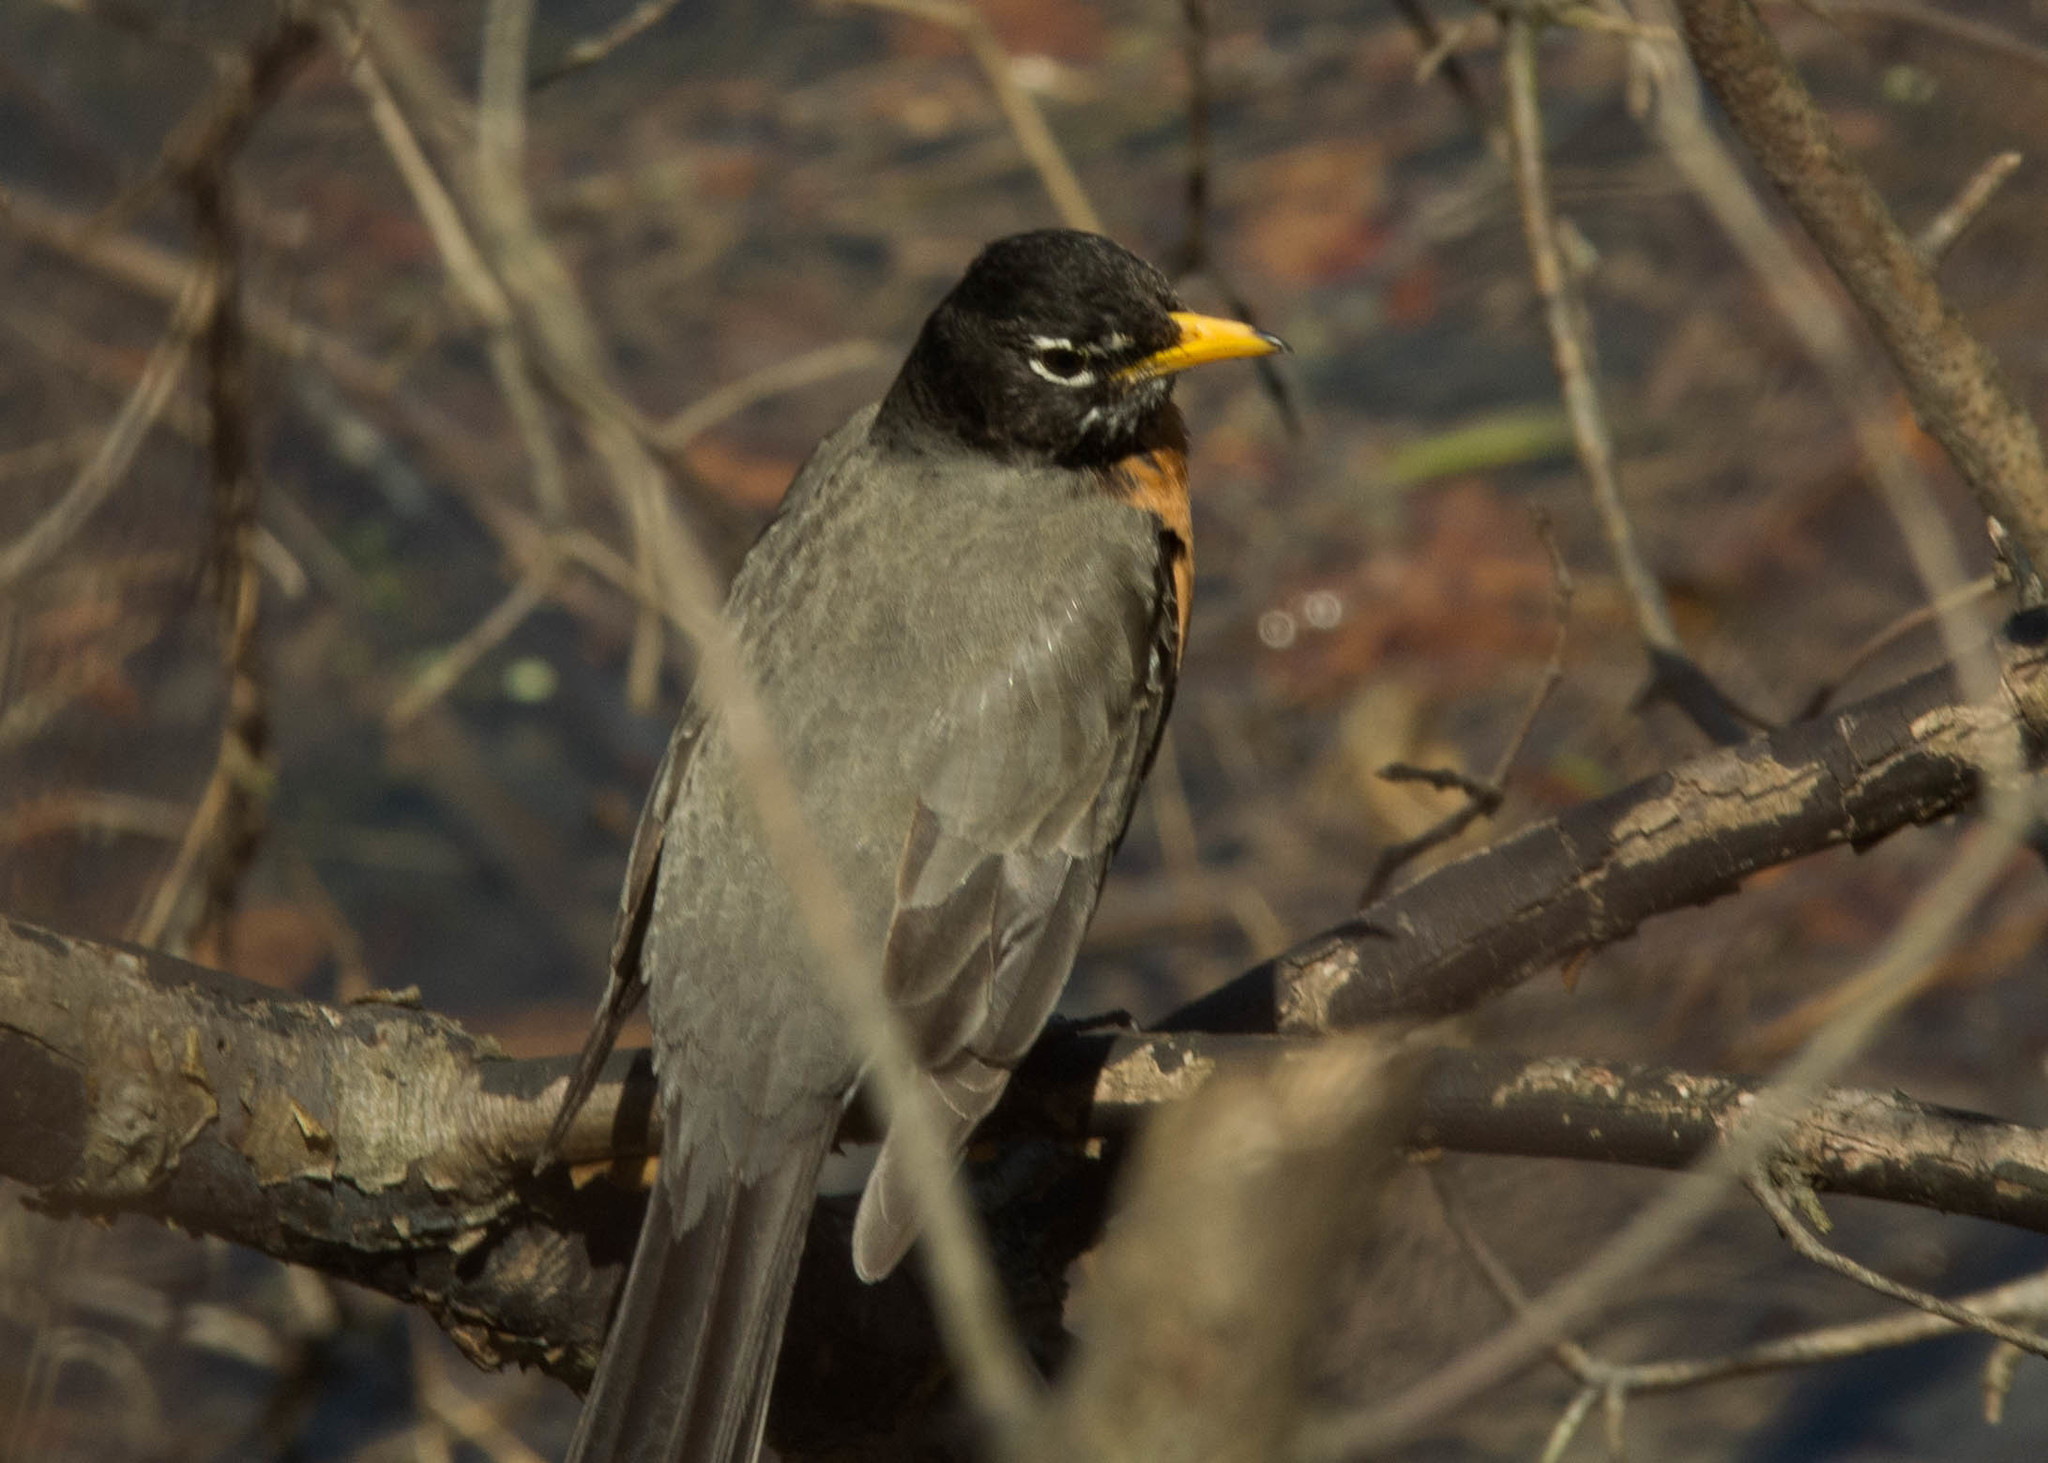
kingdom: Animalia
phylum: Chordata
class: Aves
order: Passeriformes
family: Turdidae
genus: Turdus
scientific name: Turdus migratorius
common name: American robin
